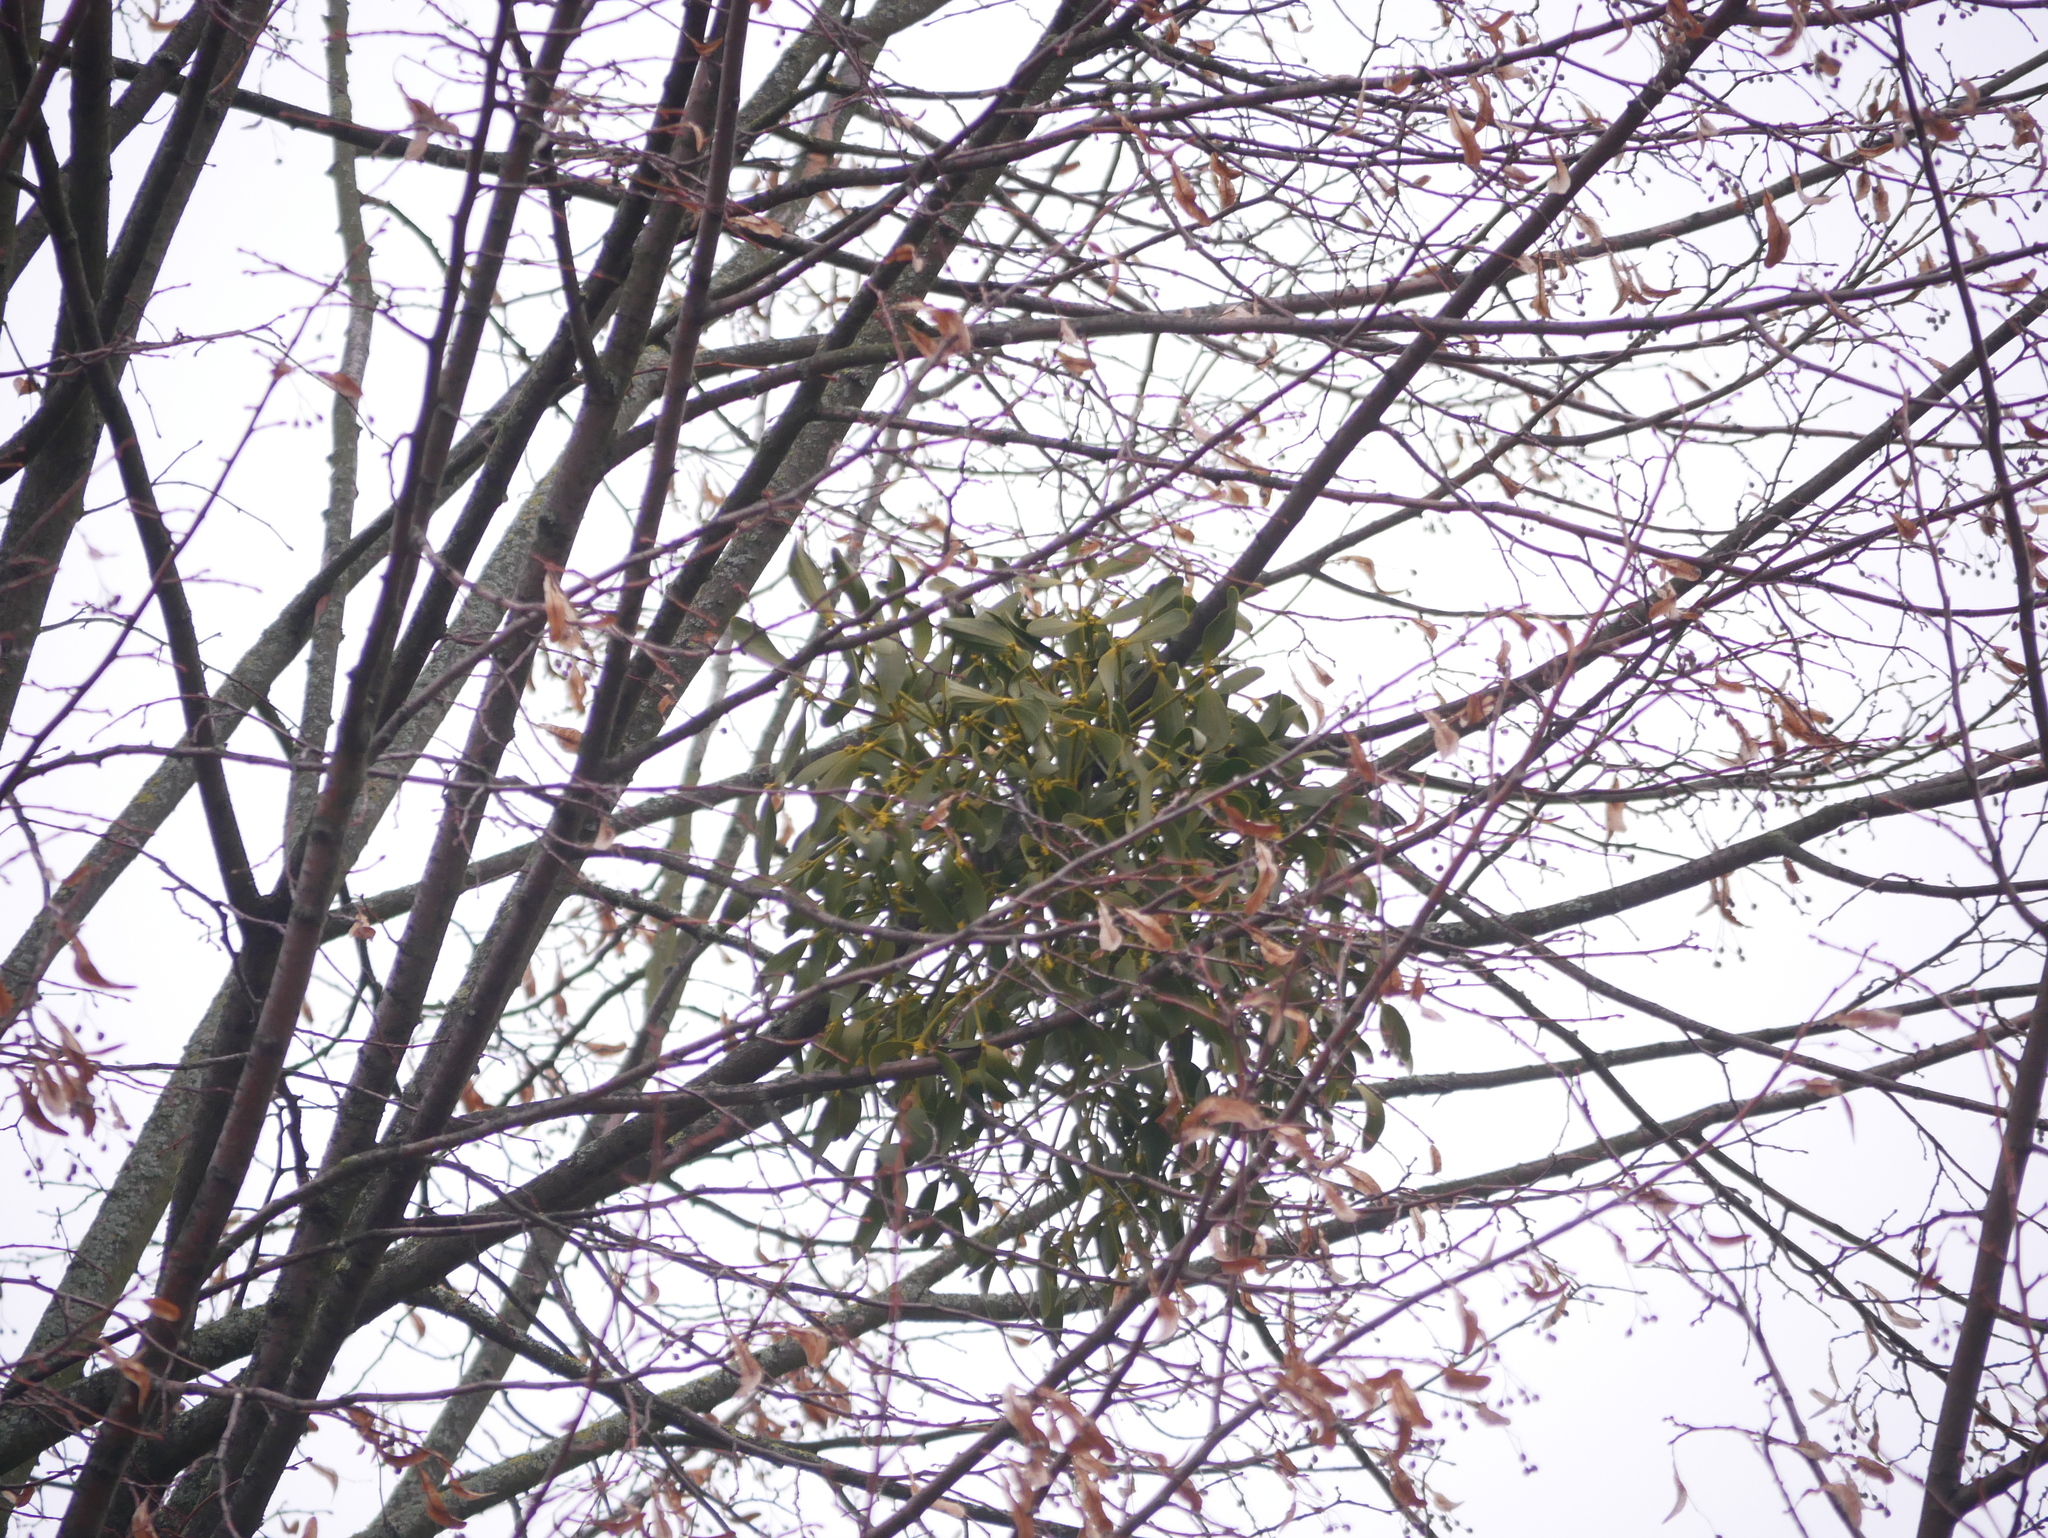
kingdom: Plantae
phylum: Tracheophyta
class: Magnoliopsida
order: Santalales
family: Viscaceae
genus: Viscum
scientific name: Viscum album
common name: Mistletoe
